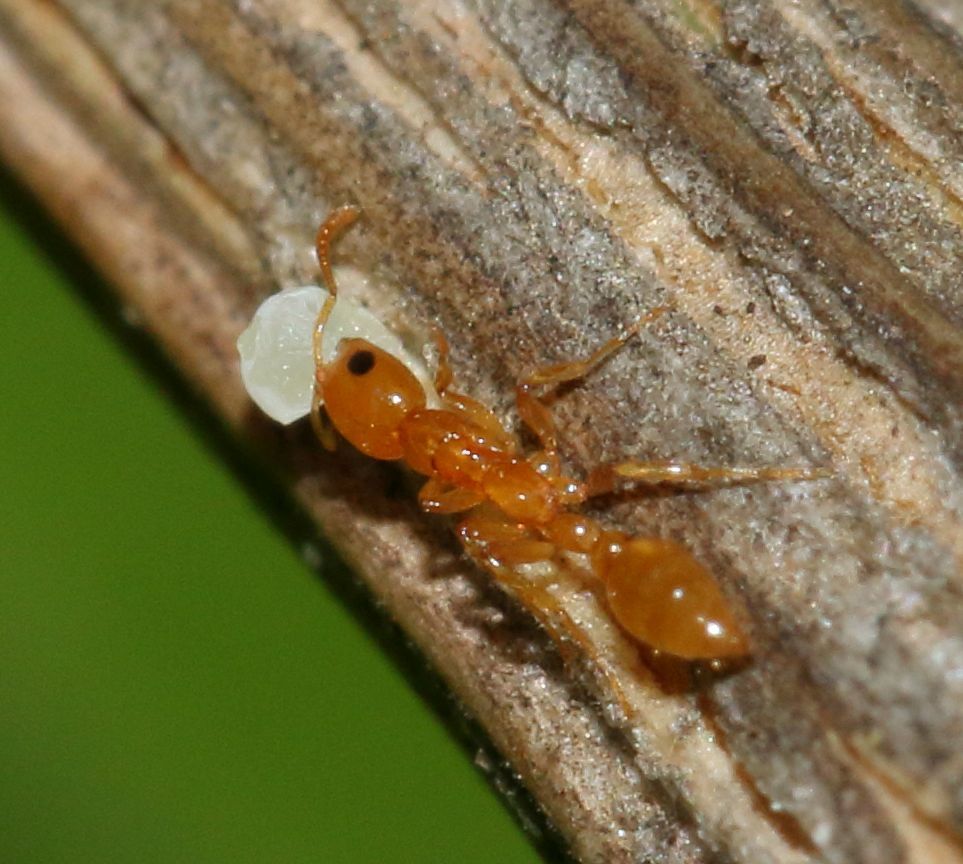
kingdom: Animalia
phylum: Arthropoda
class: Insecta
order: Hymenoptera
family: Formicidae
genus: Tetraponera
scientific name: Tetraponera emeryi
